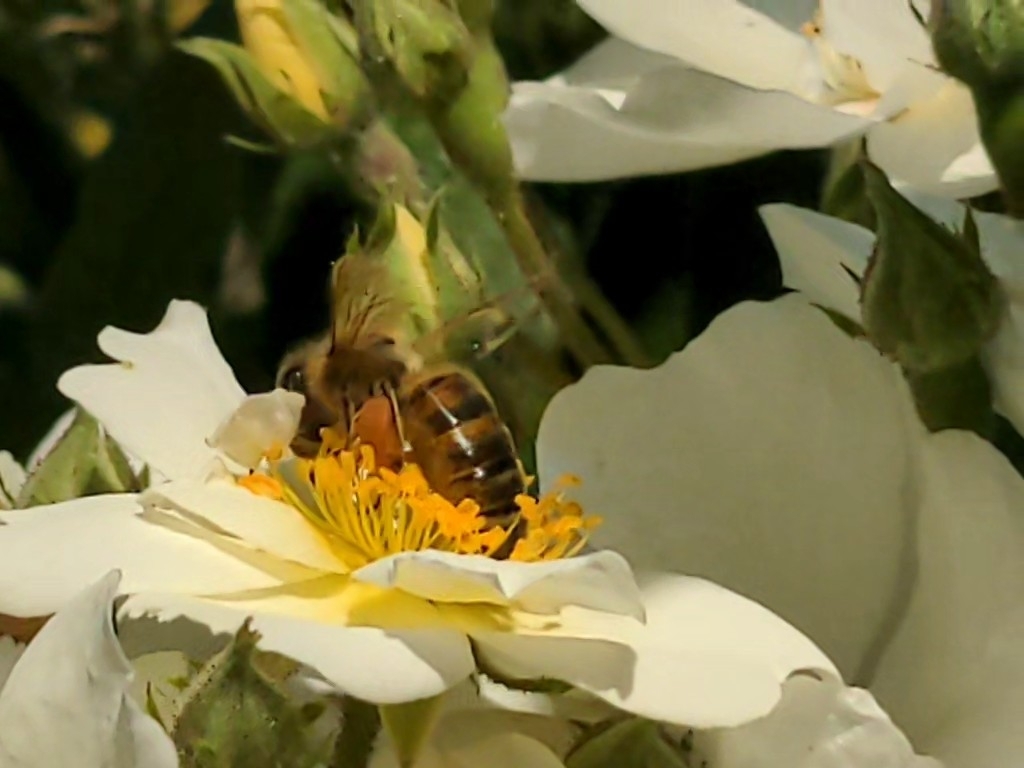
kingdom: Animalia
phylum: Arthropoda
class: Insecta
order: Hymenoptera
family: Apidae
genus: Apis
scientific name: Apis mellifera
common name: Honey bee
